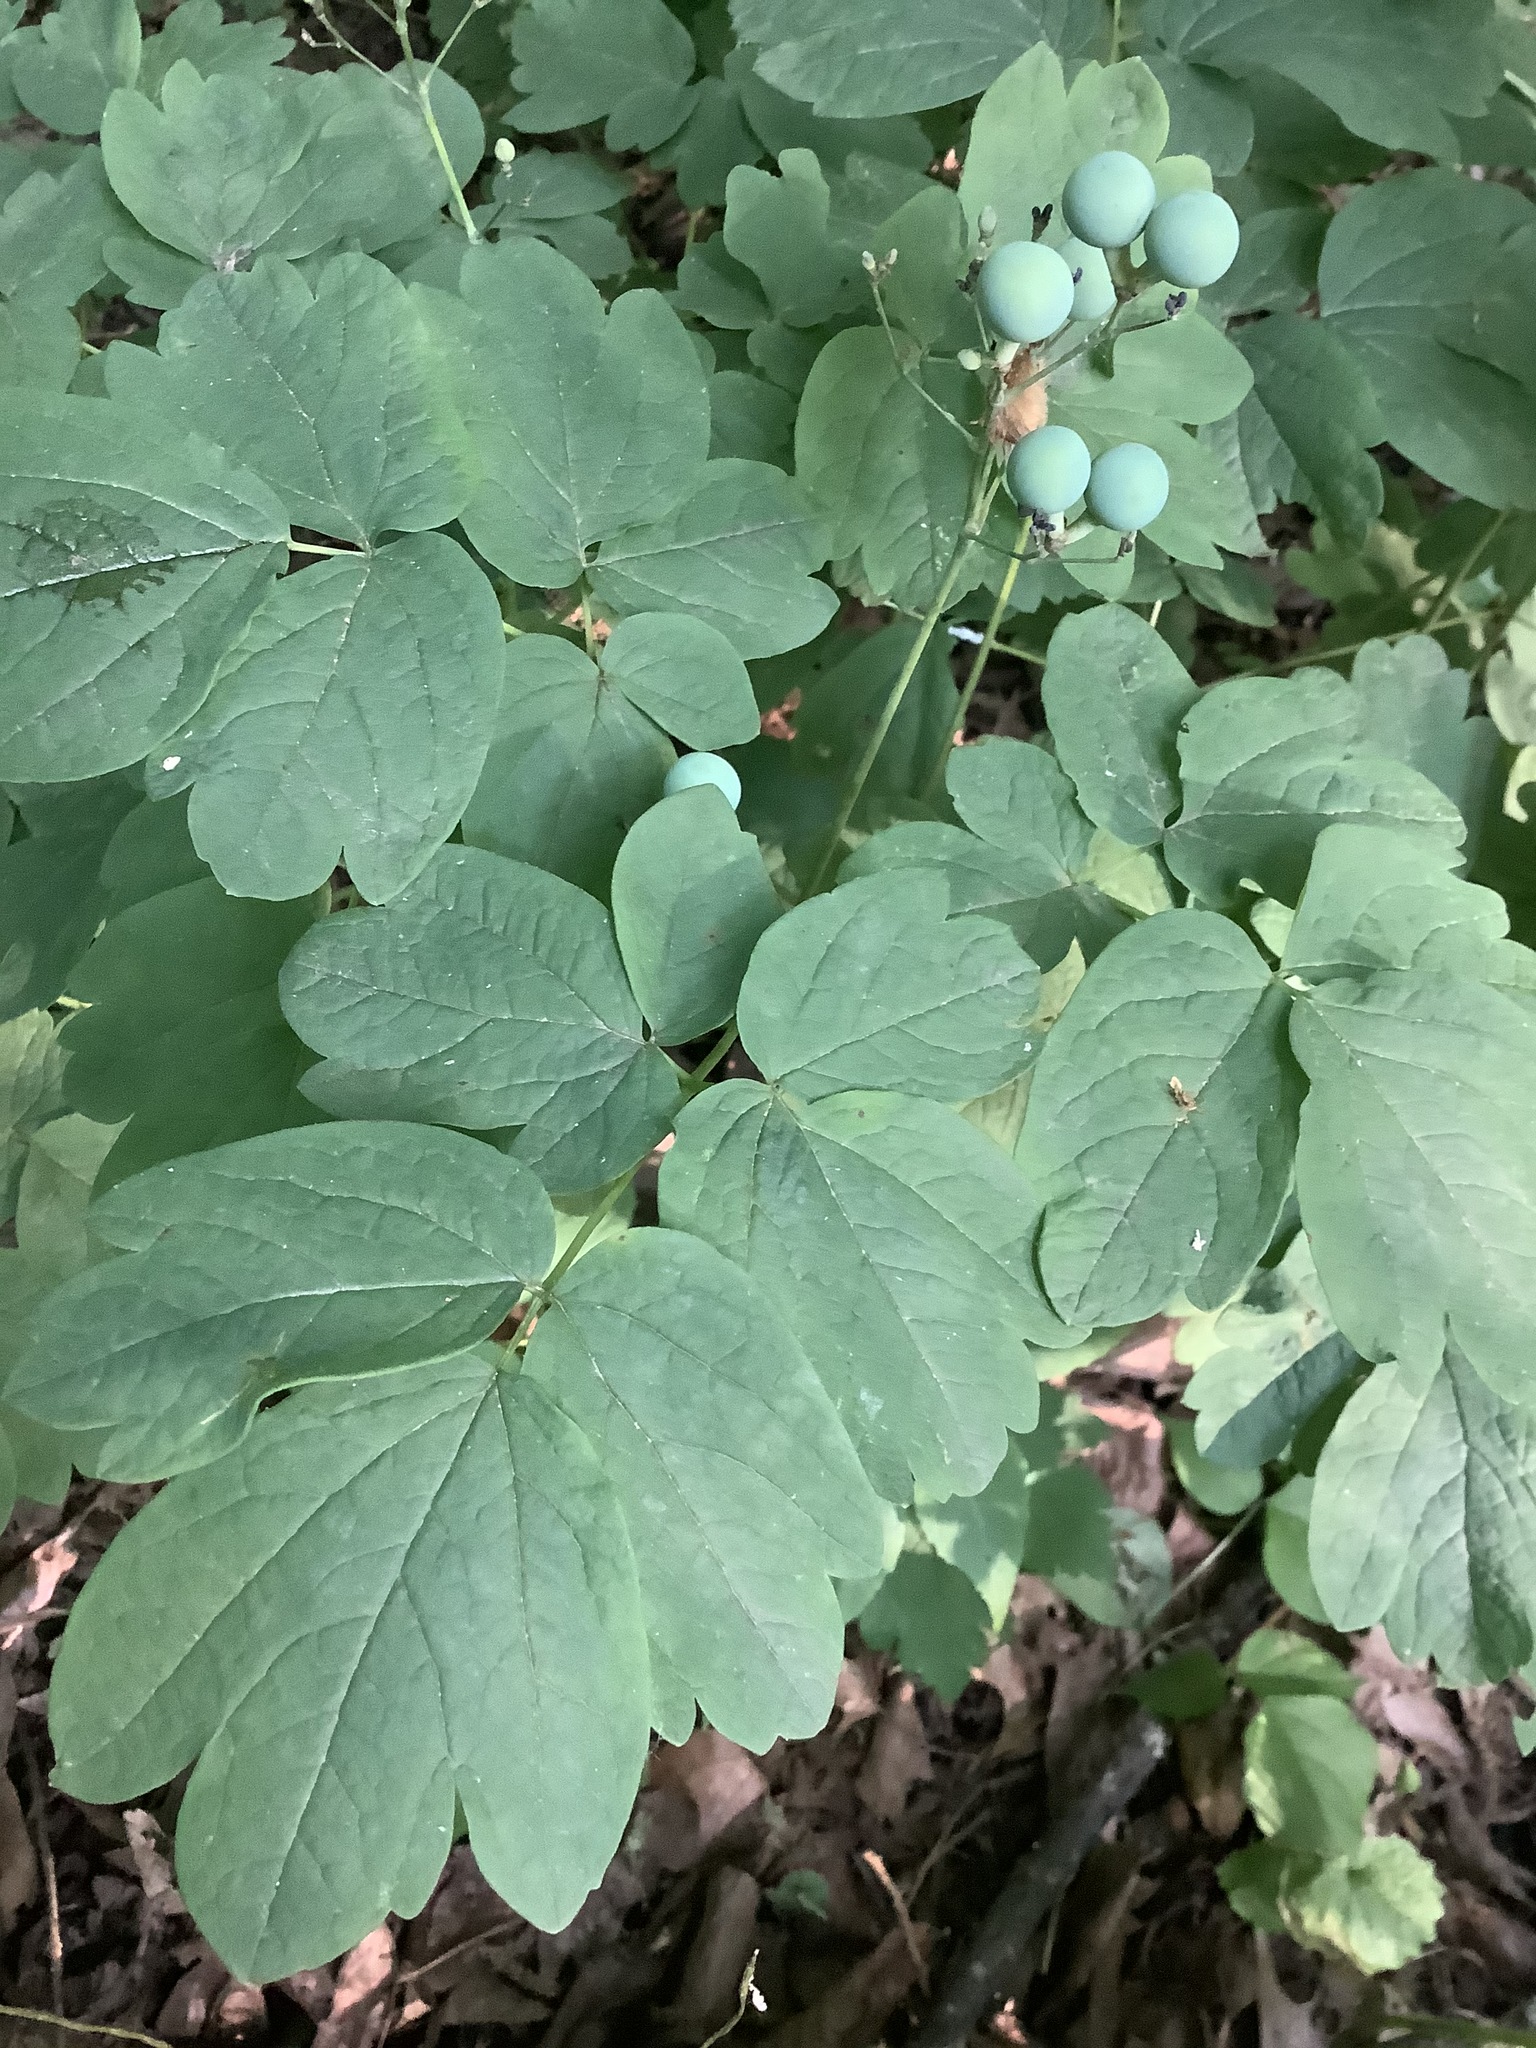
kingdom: Plantae
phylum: Tracheophyta
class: Magnoliopsida
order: Ranunculales
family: Berberidaceae
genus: Caulophyllum
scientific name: Caulophyllum thalictroides
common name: Blue cohosh
